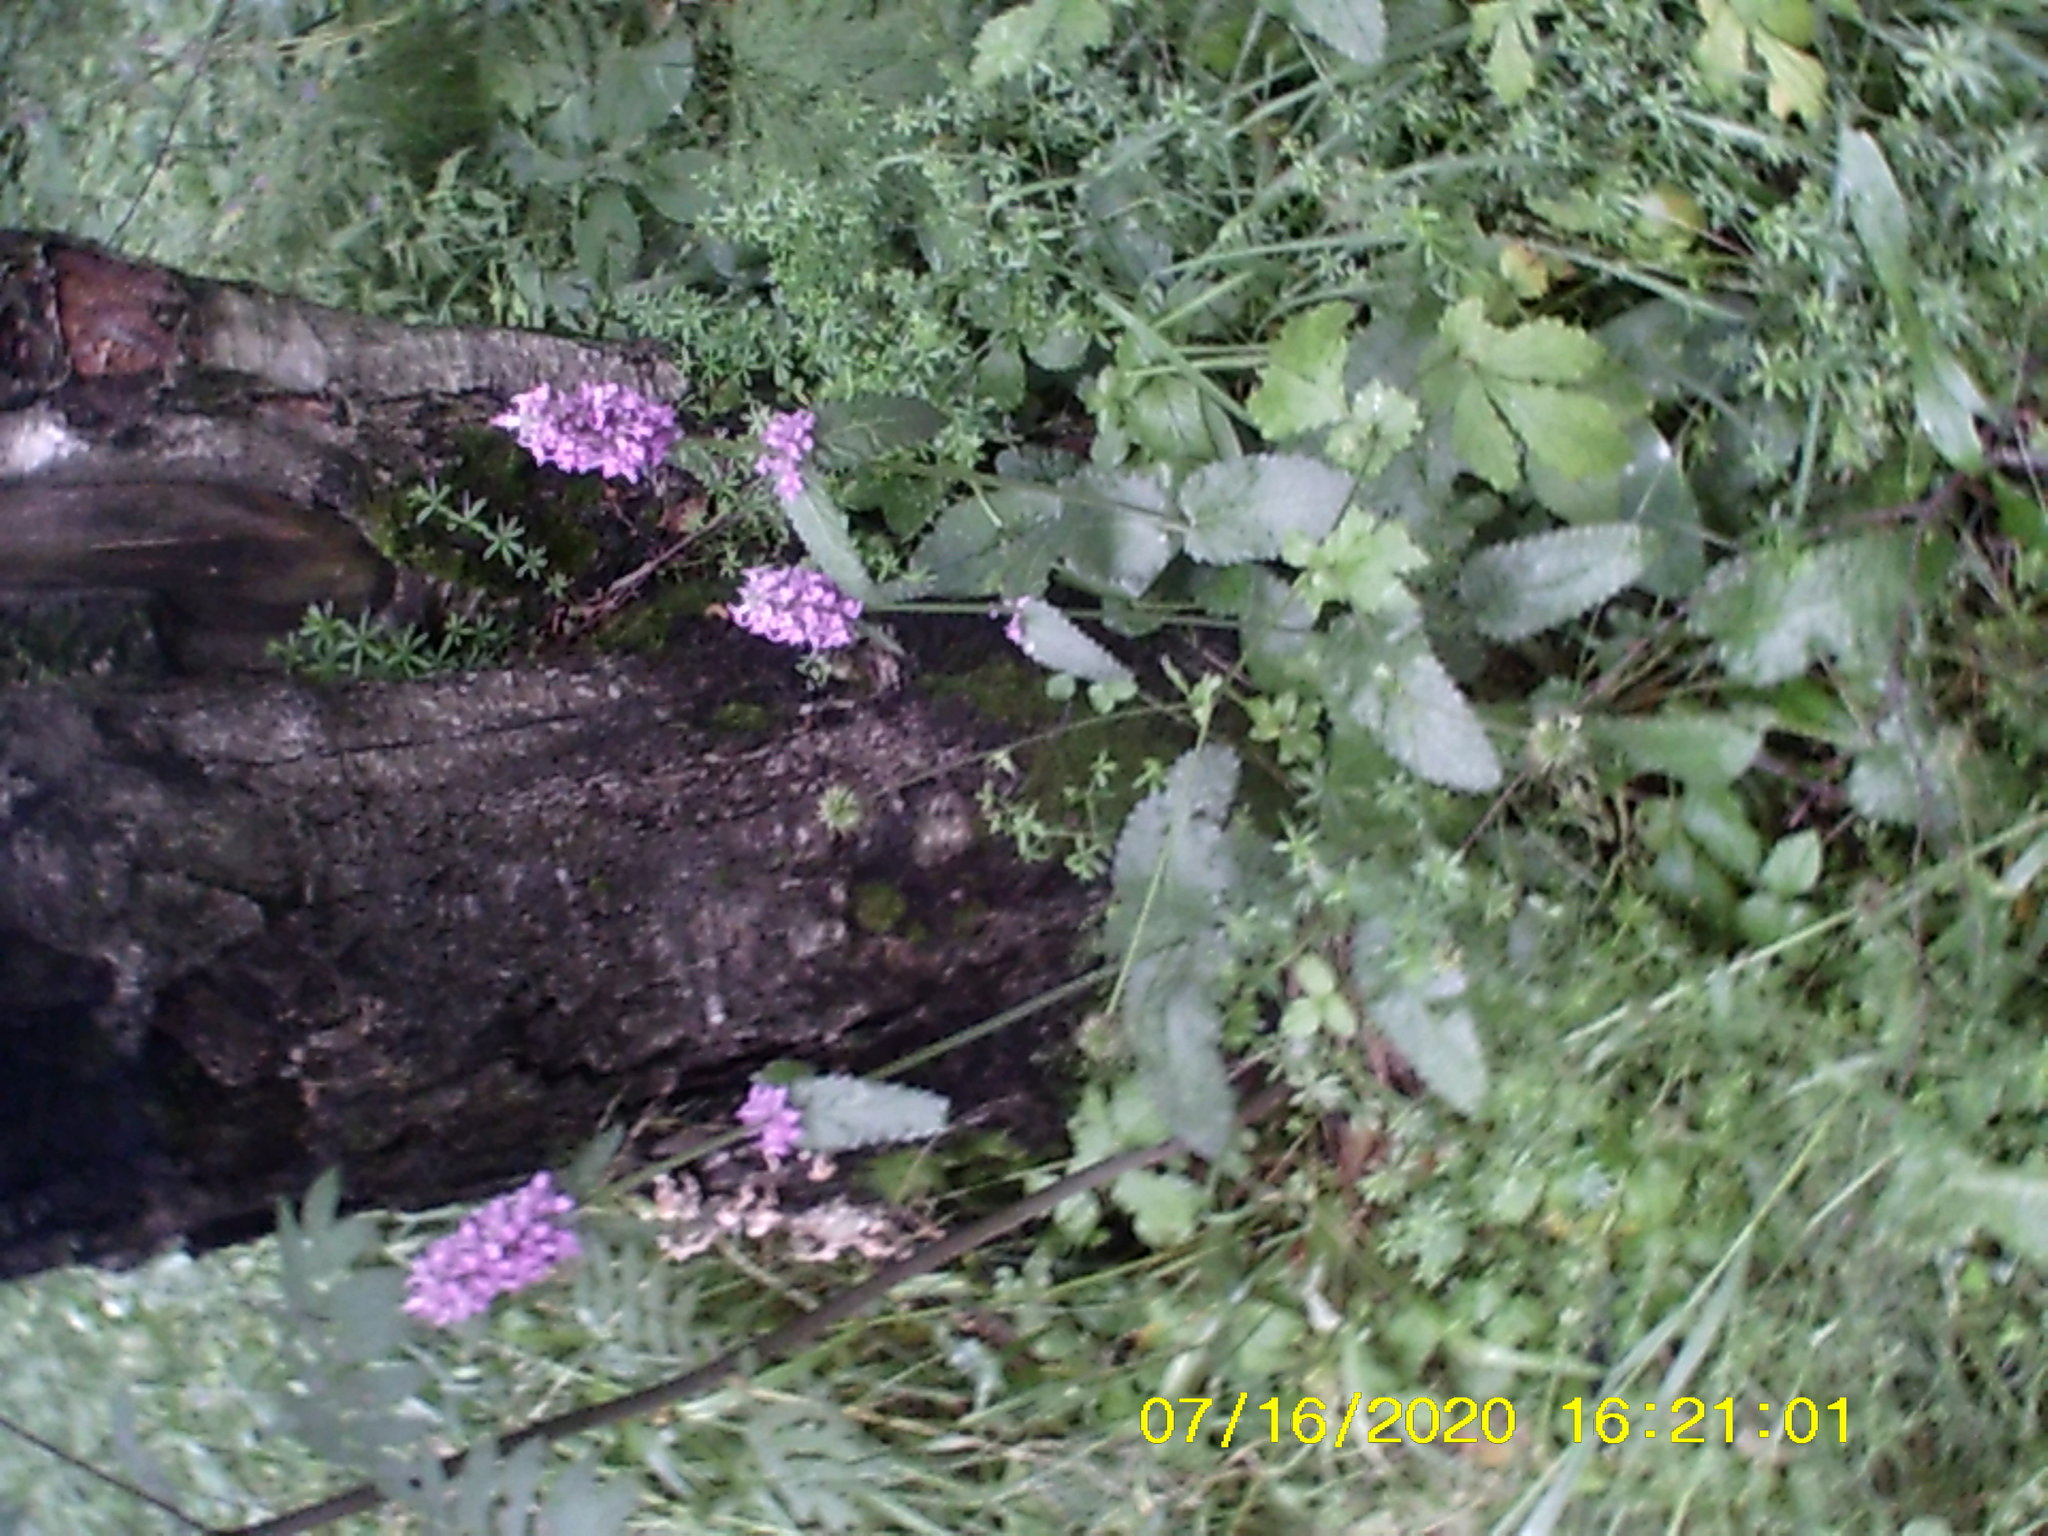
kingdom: Plantae
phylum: Tracheophyta
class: Magnoliopsida
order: Lamiales
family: Lamiaceae
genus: Betonica
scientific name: Betonica officinalis
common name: Bishop's-wort
